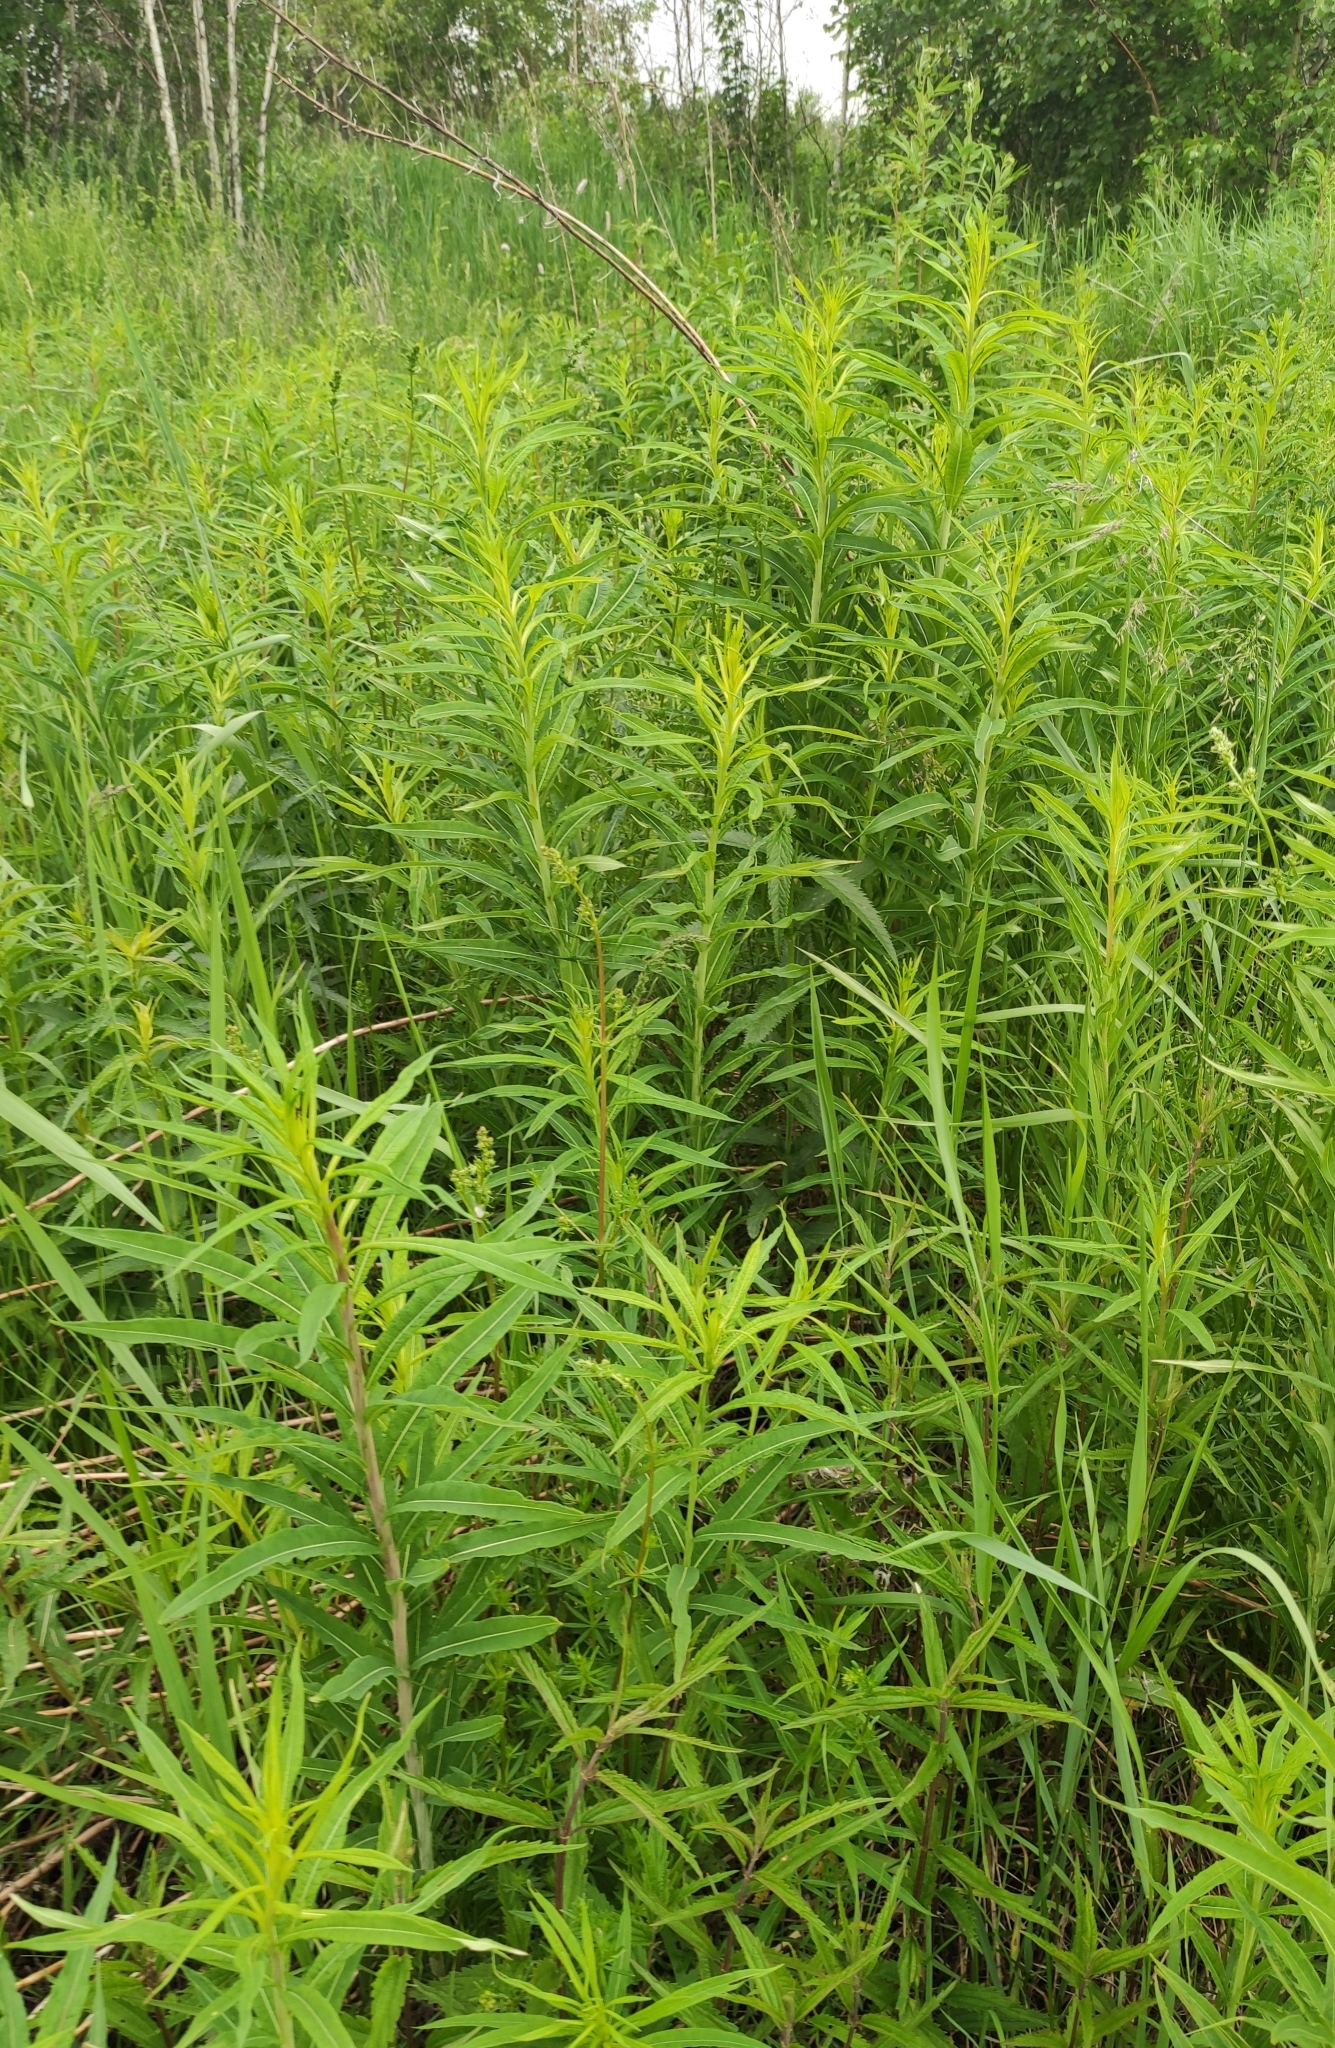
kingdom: Plantae
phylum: Tracheophyta
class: Magnoliopsida
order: Myrtales
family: Onagraceae
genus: Chamaenerion
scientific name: Chamaenerion angustifolium
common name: Fireweed
